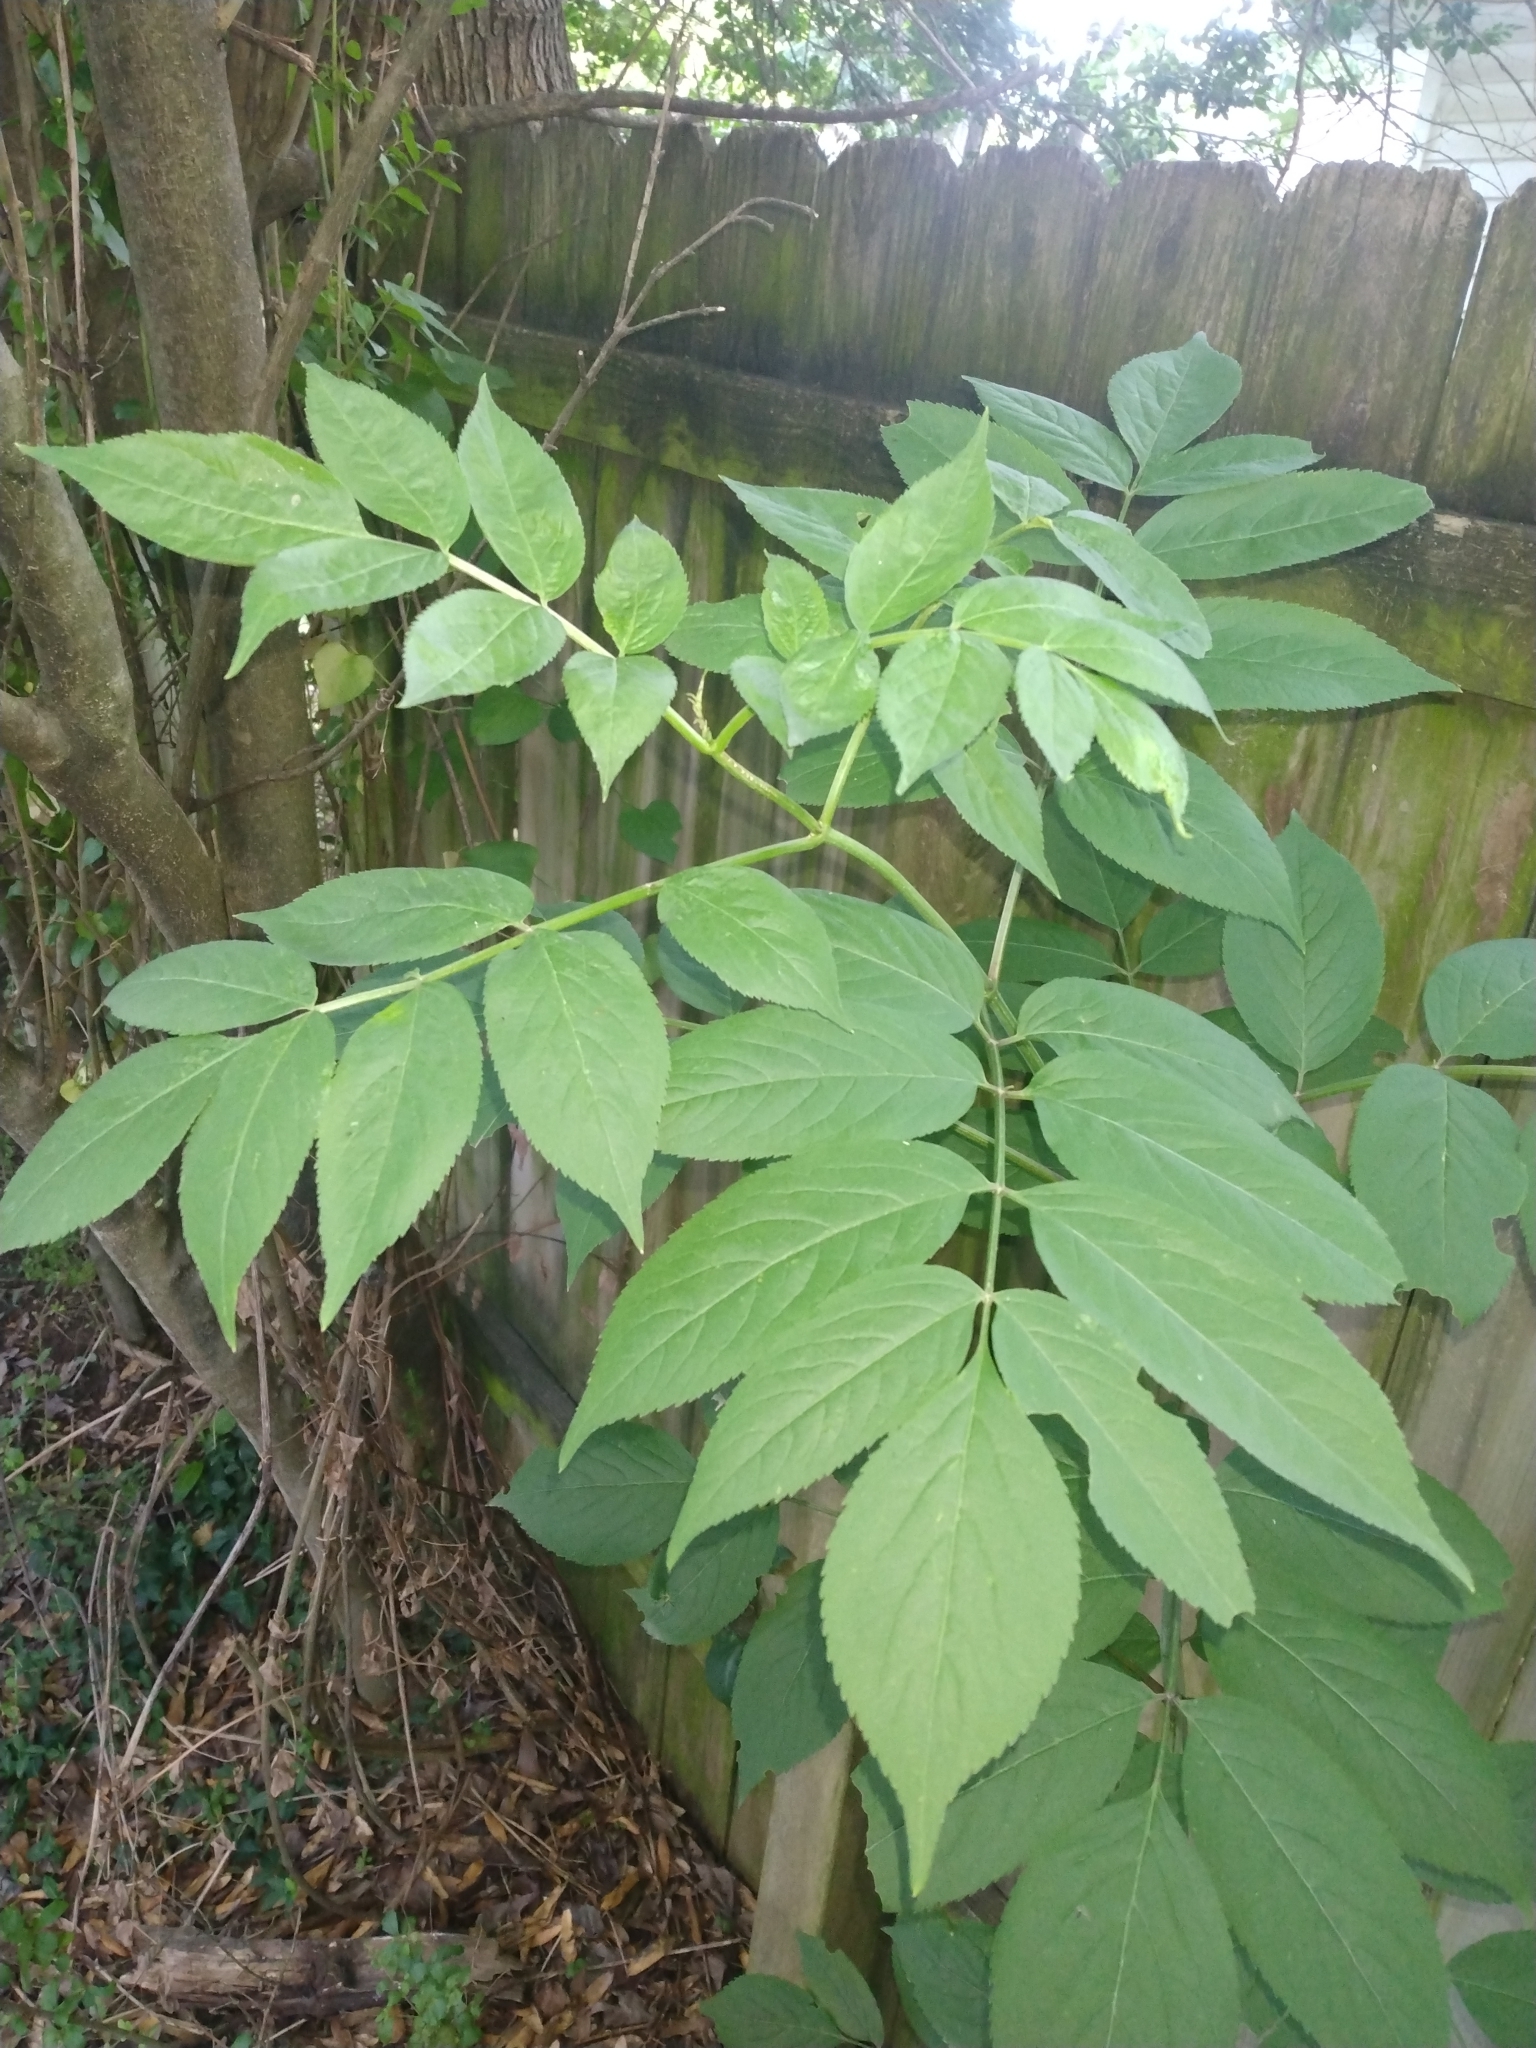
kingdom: Plantae
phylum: Tracheophyta
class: Magnoliopsida
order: Dipsacales
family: Viburnaceae
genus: Sambucus
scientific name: Sambucus canadensis
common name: American elder
